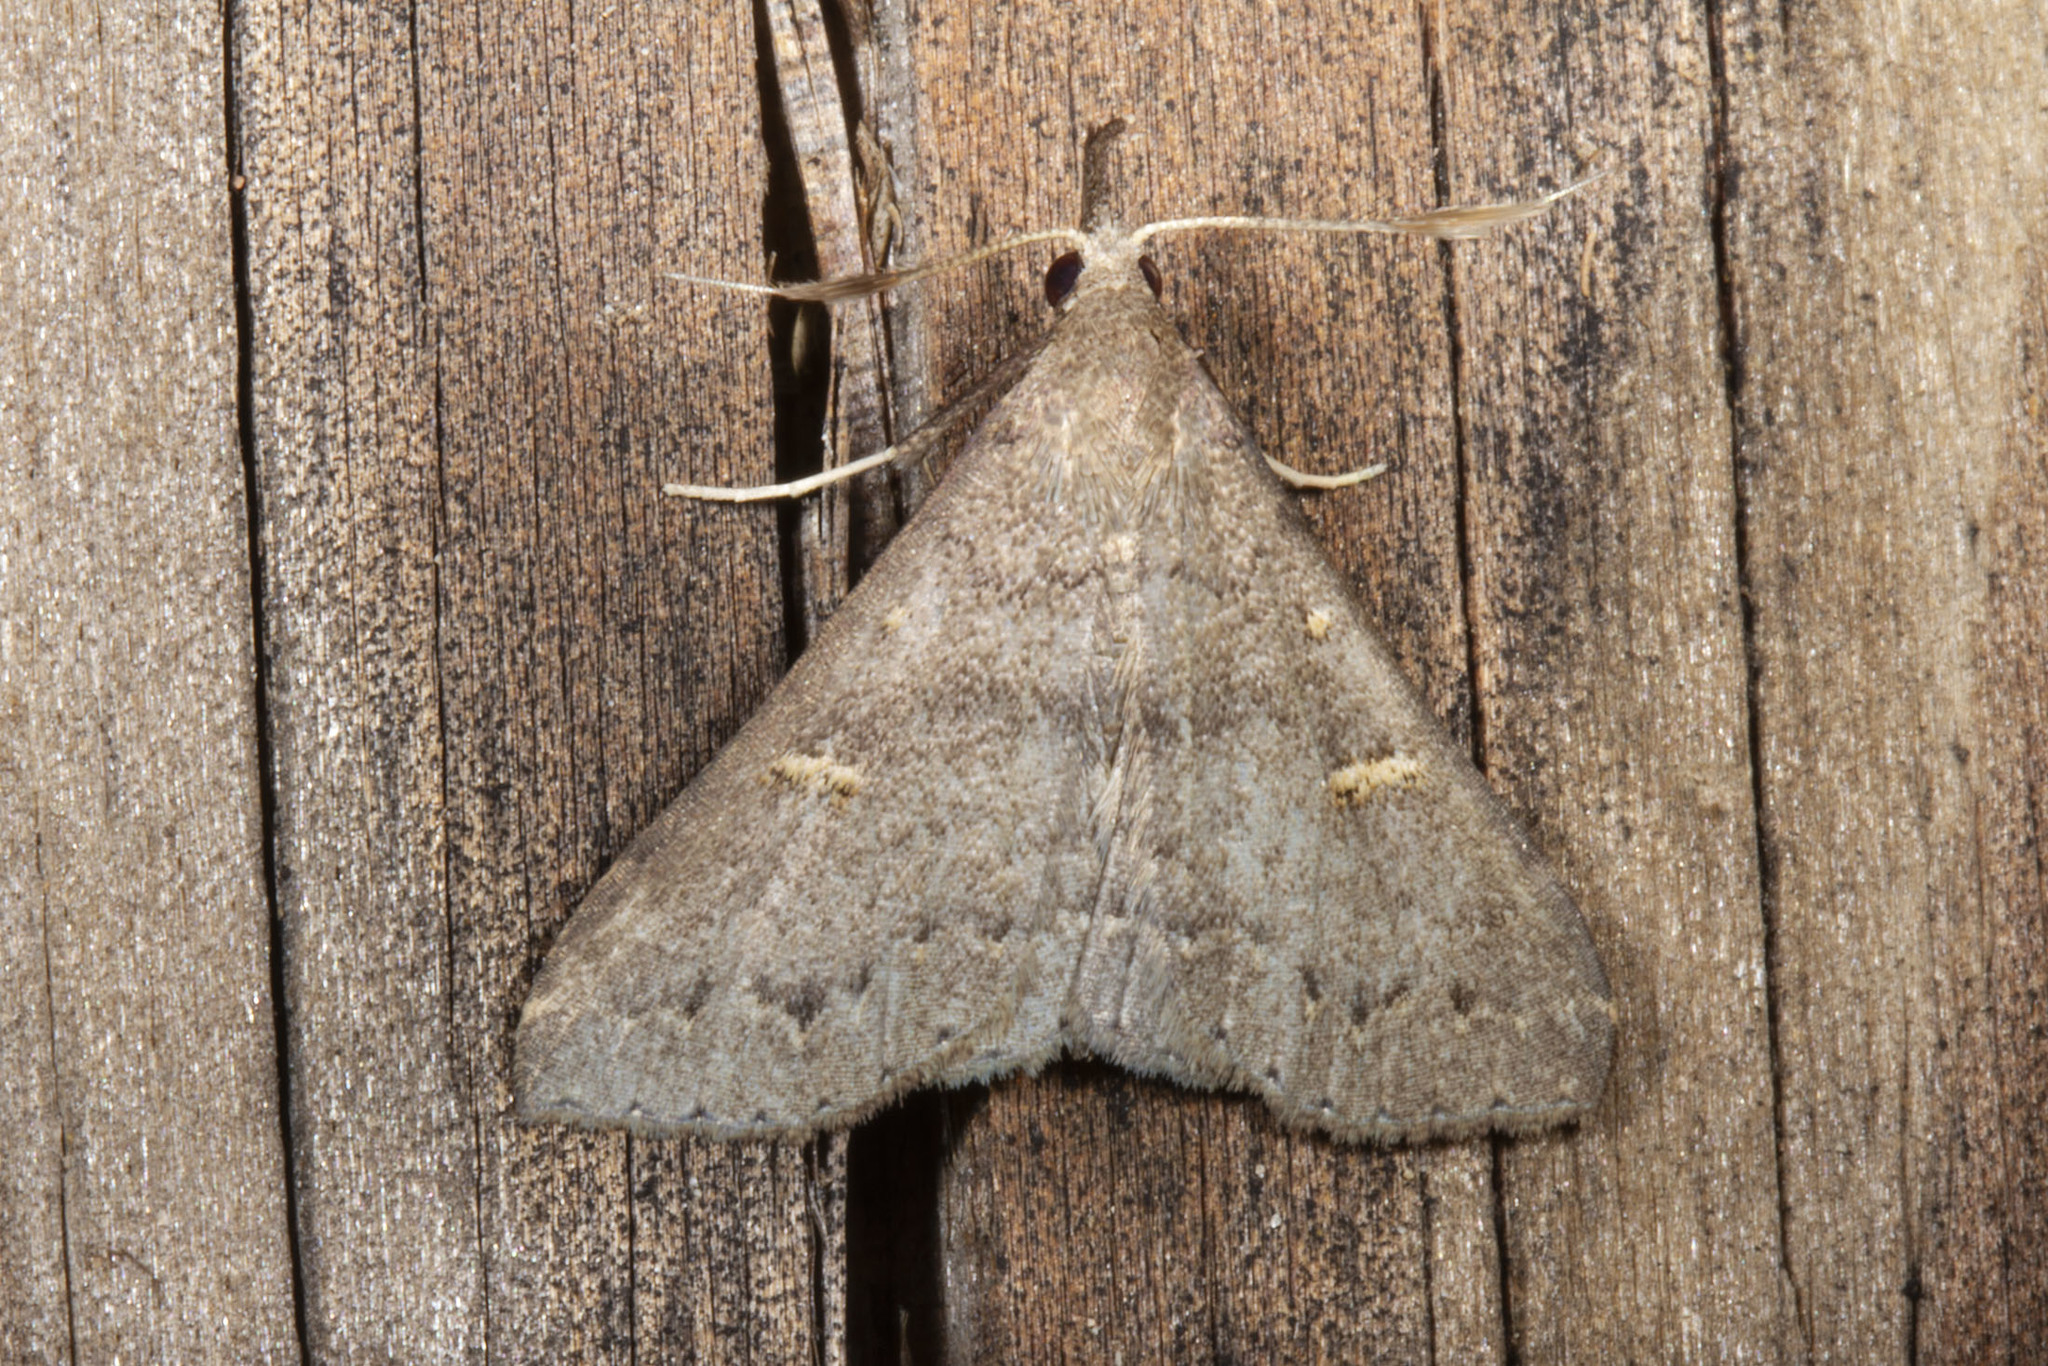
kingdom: Animalia
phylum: Arthropoda
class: Insecta
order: Lepidoptera
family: Erebidae
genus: Renia
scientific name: Renia adspergillus
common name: Speckled renia moth
